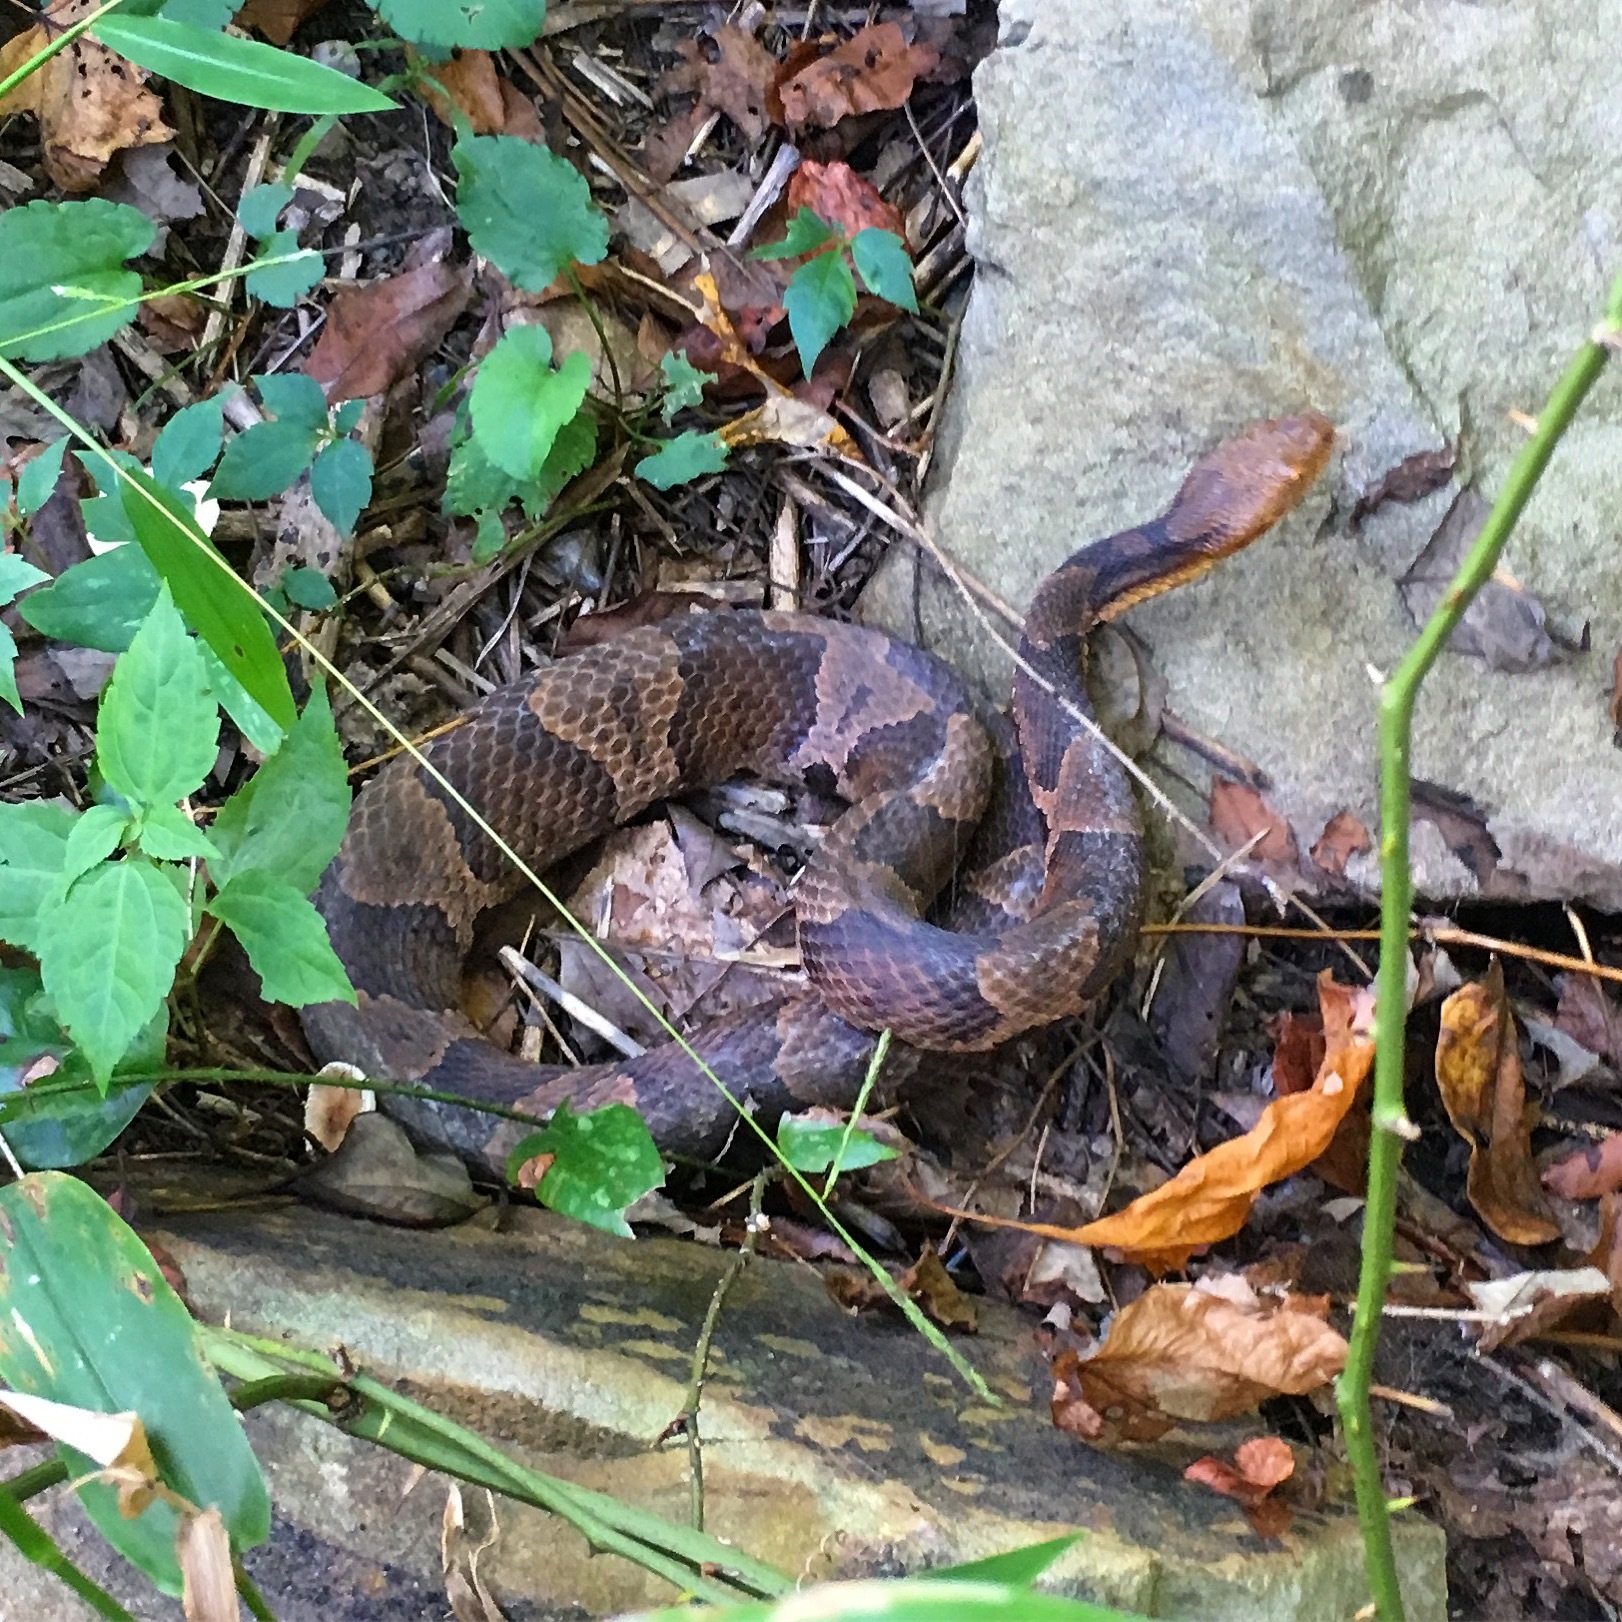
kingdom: Animalia
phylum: Chordata
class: Squamata
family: Viperidae
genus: Agkistrodon
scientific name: Agkistrodon contortrix
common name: Northern copperhead
